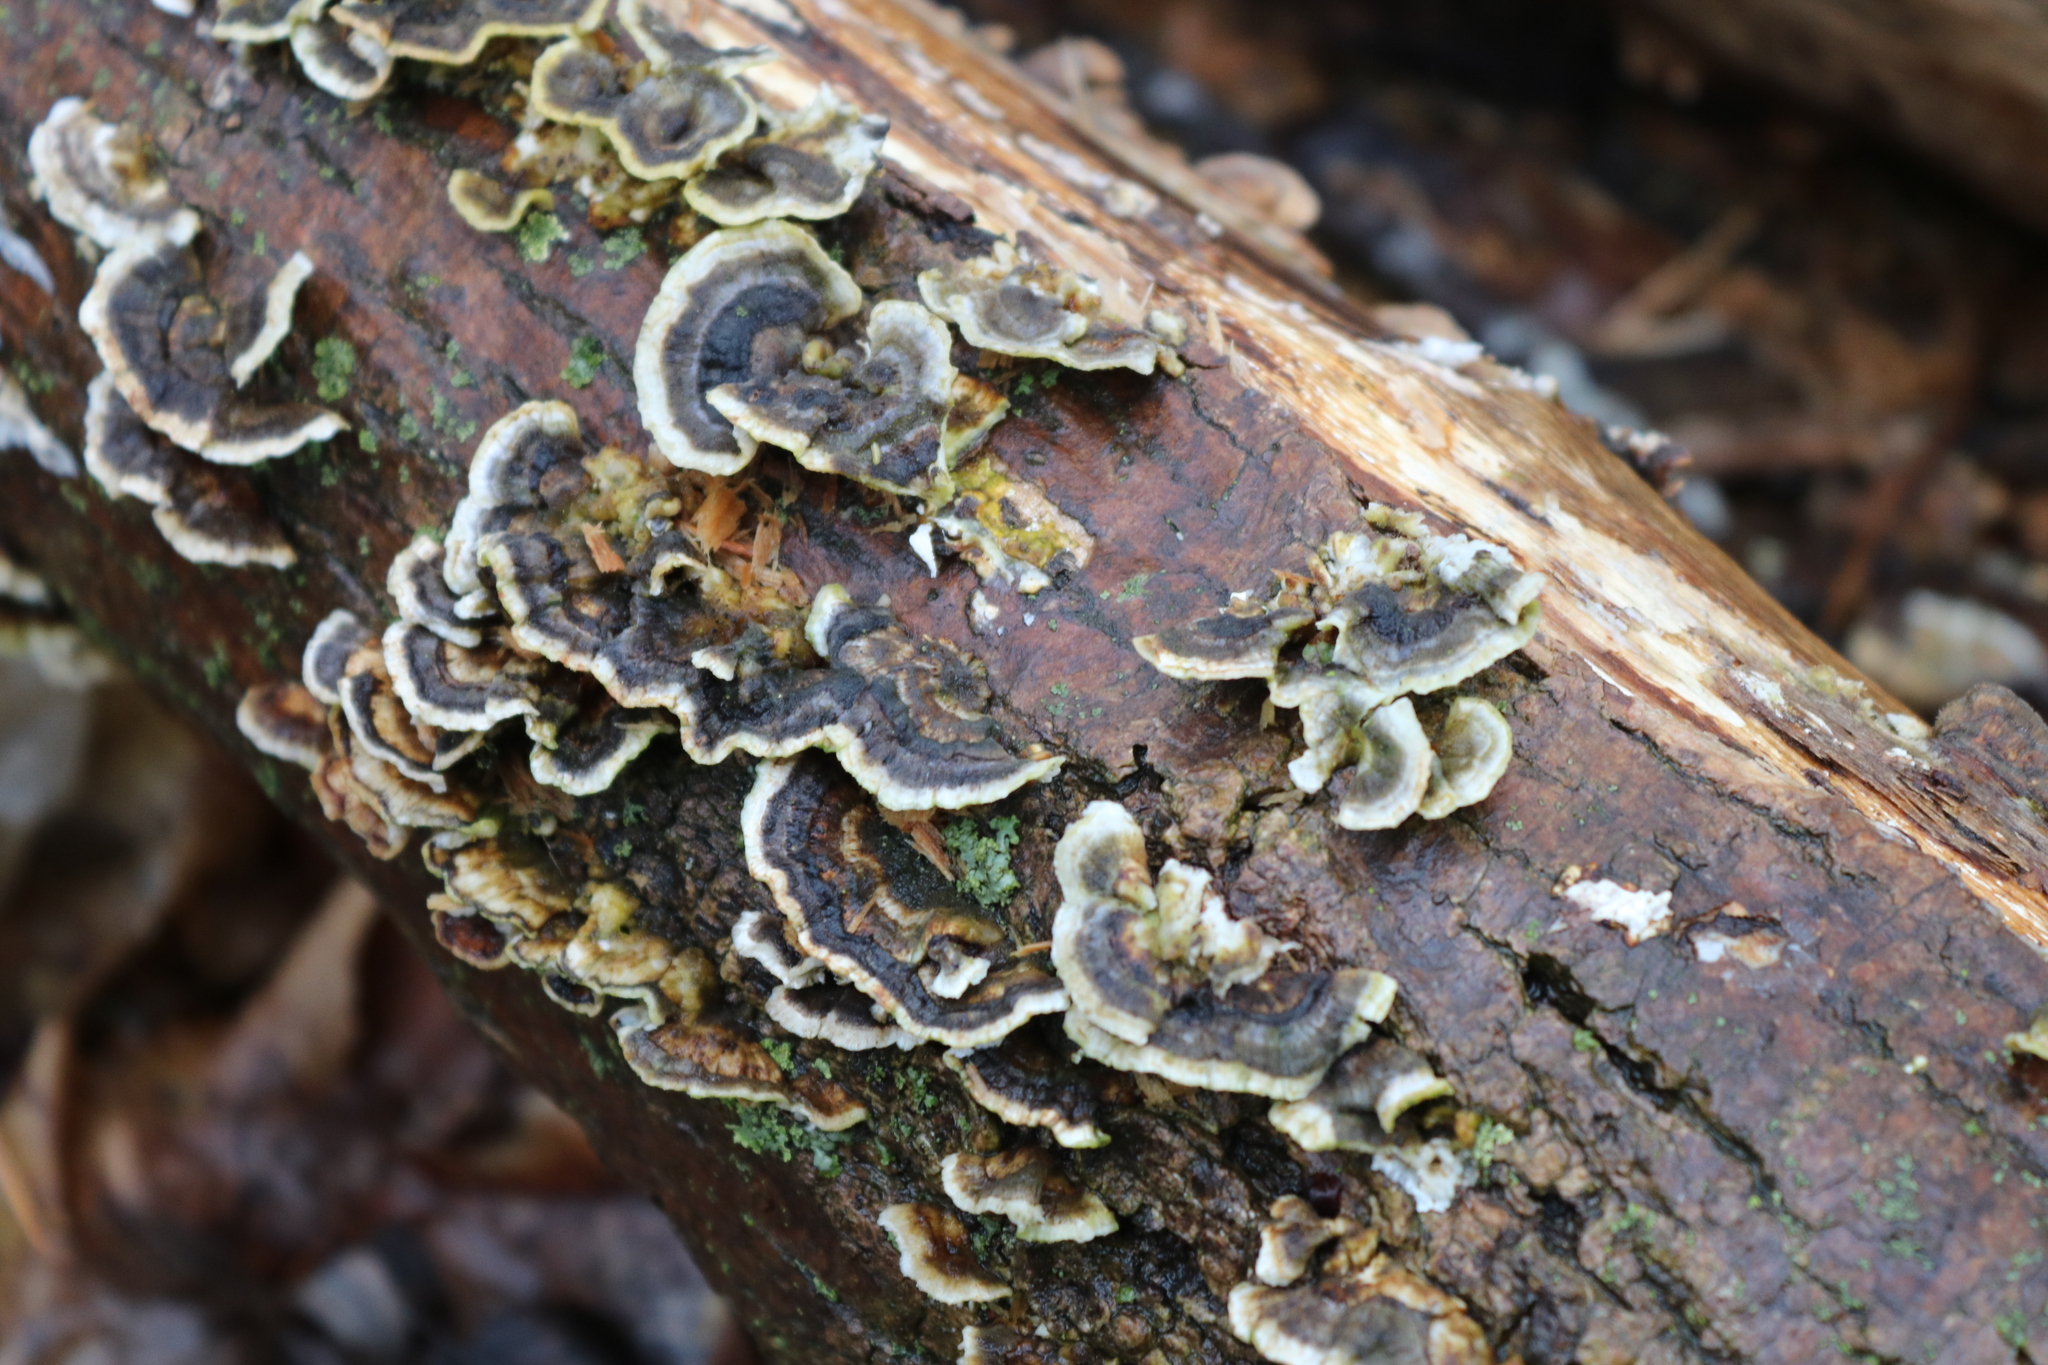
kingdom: Fungi
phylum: Basidiomycota
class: Agaricomycetes
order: Polyporales
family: Polyporaceae
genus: Trametes
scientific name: Trametes versicolor
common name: Turkeytail
